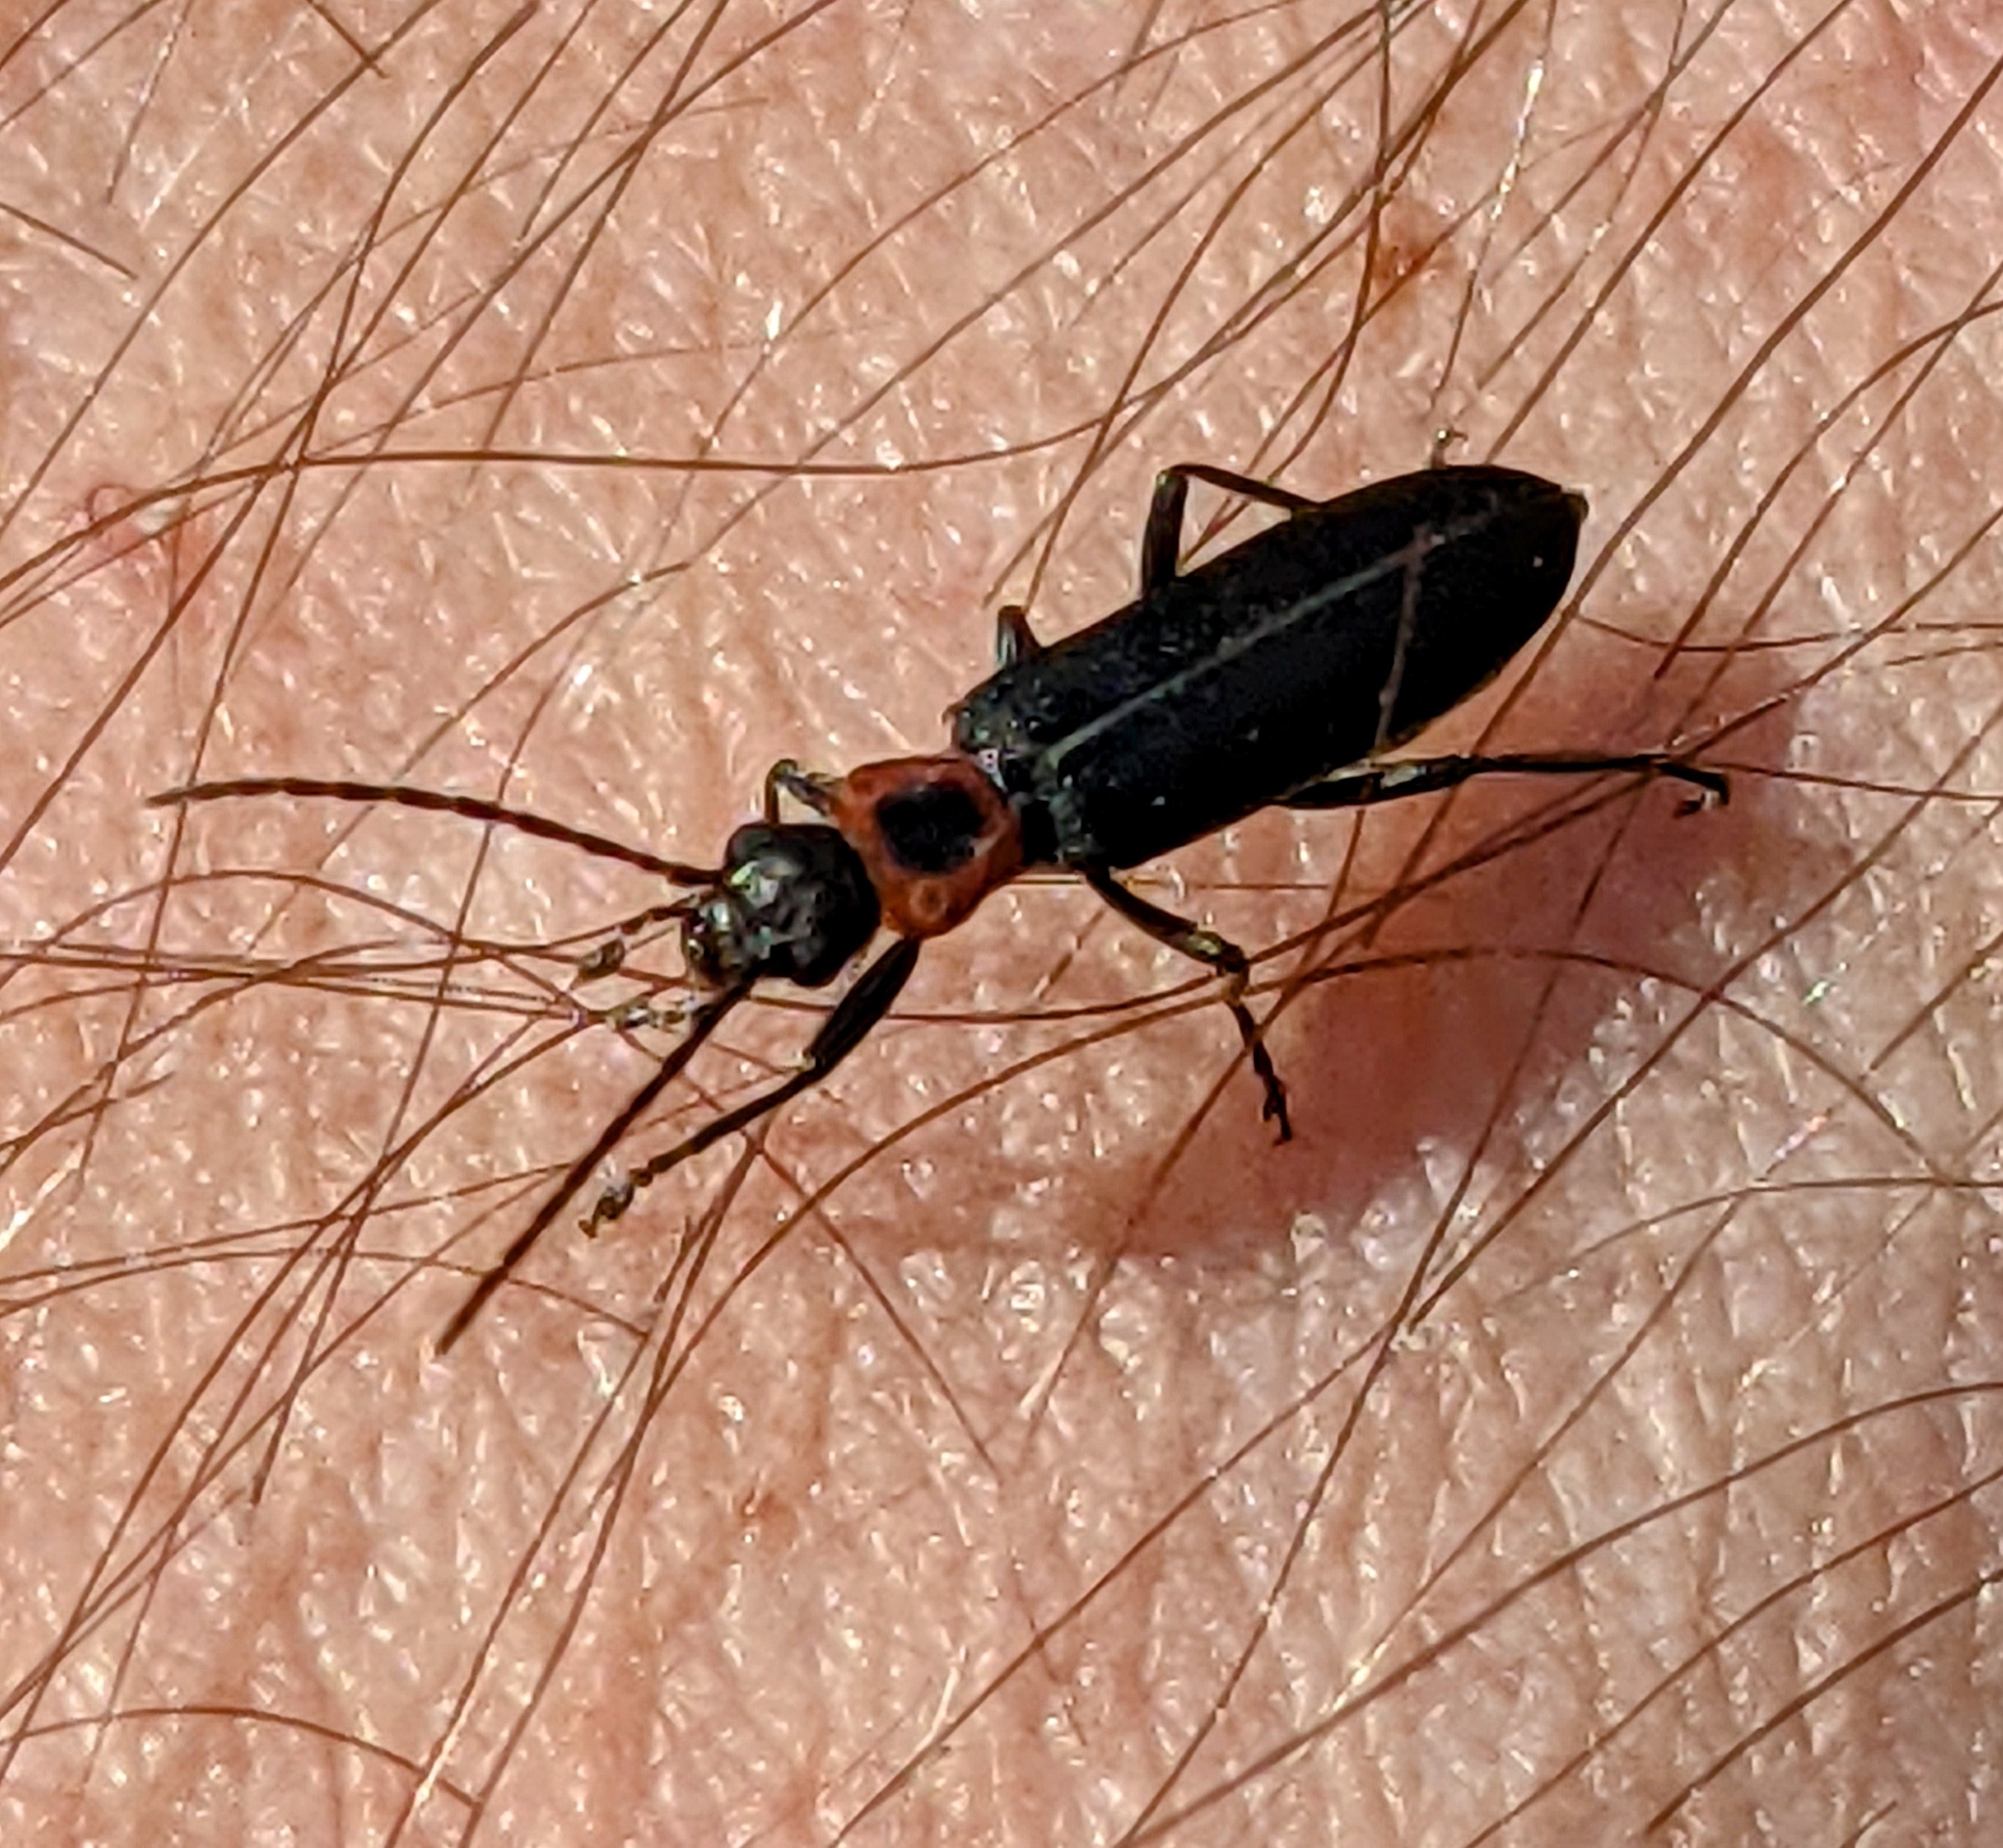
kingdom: Animalia
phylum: Arthropoda
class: Insecta
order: Coleoptera
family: Oedemeridae
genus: Ischnomera
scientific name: Ischnomera
